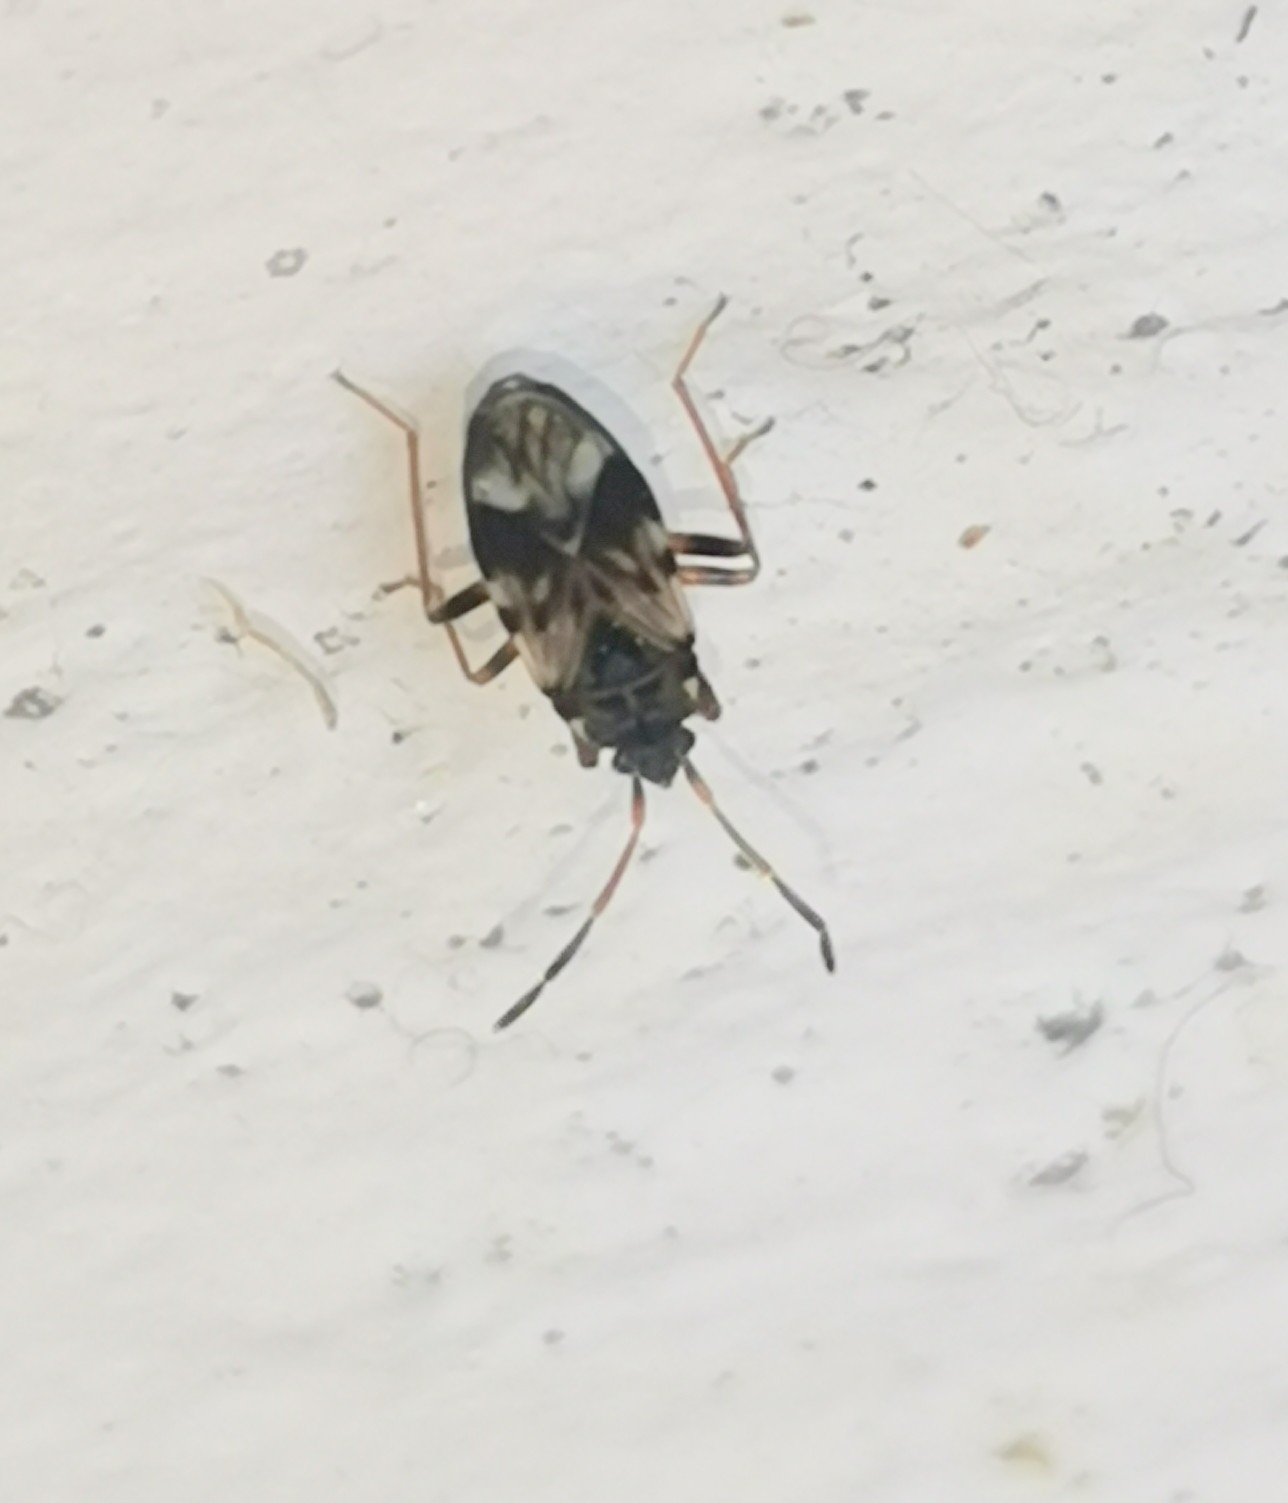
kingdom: Animalia
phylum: Arthropoda
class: Insecta
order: Hemiptera
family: Rhyparochromidae
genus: Scolopostethus
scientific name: Scolopostethus pictus
